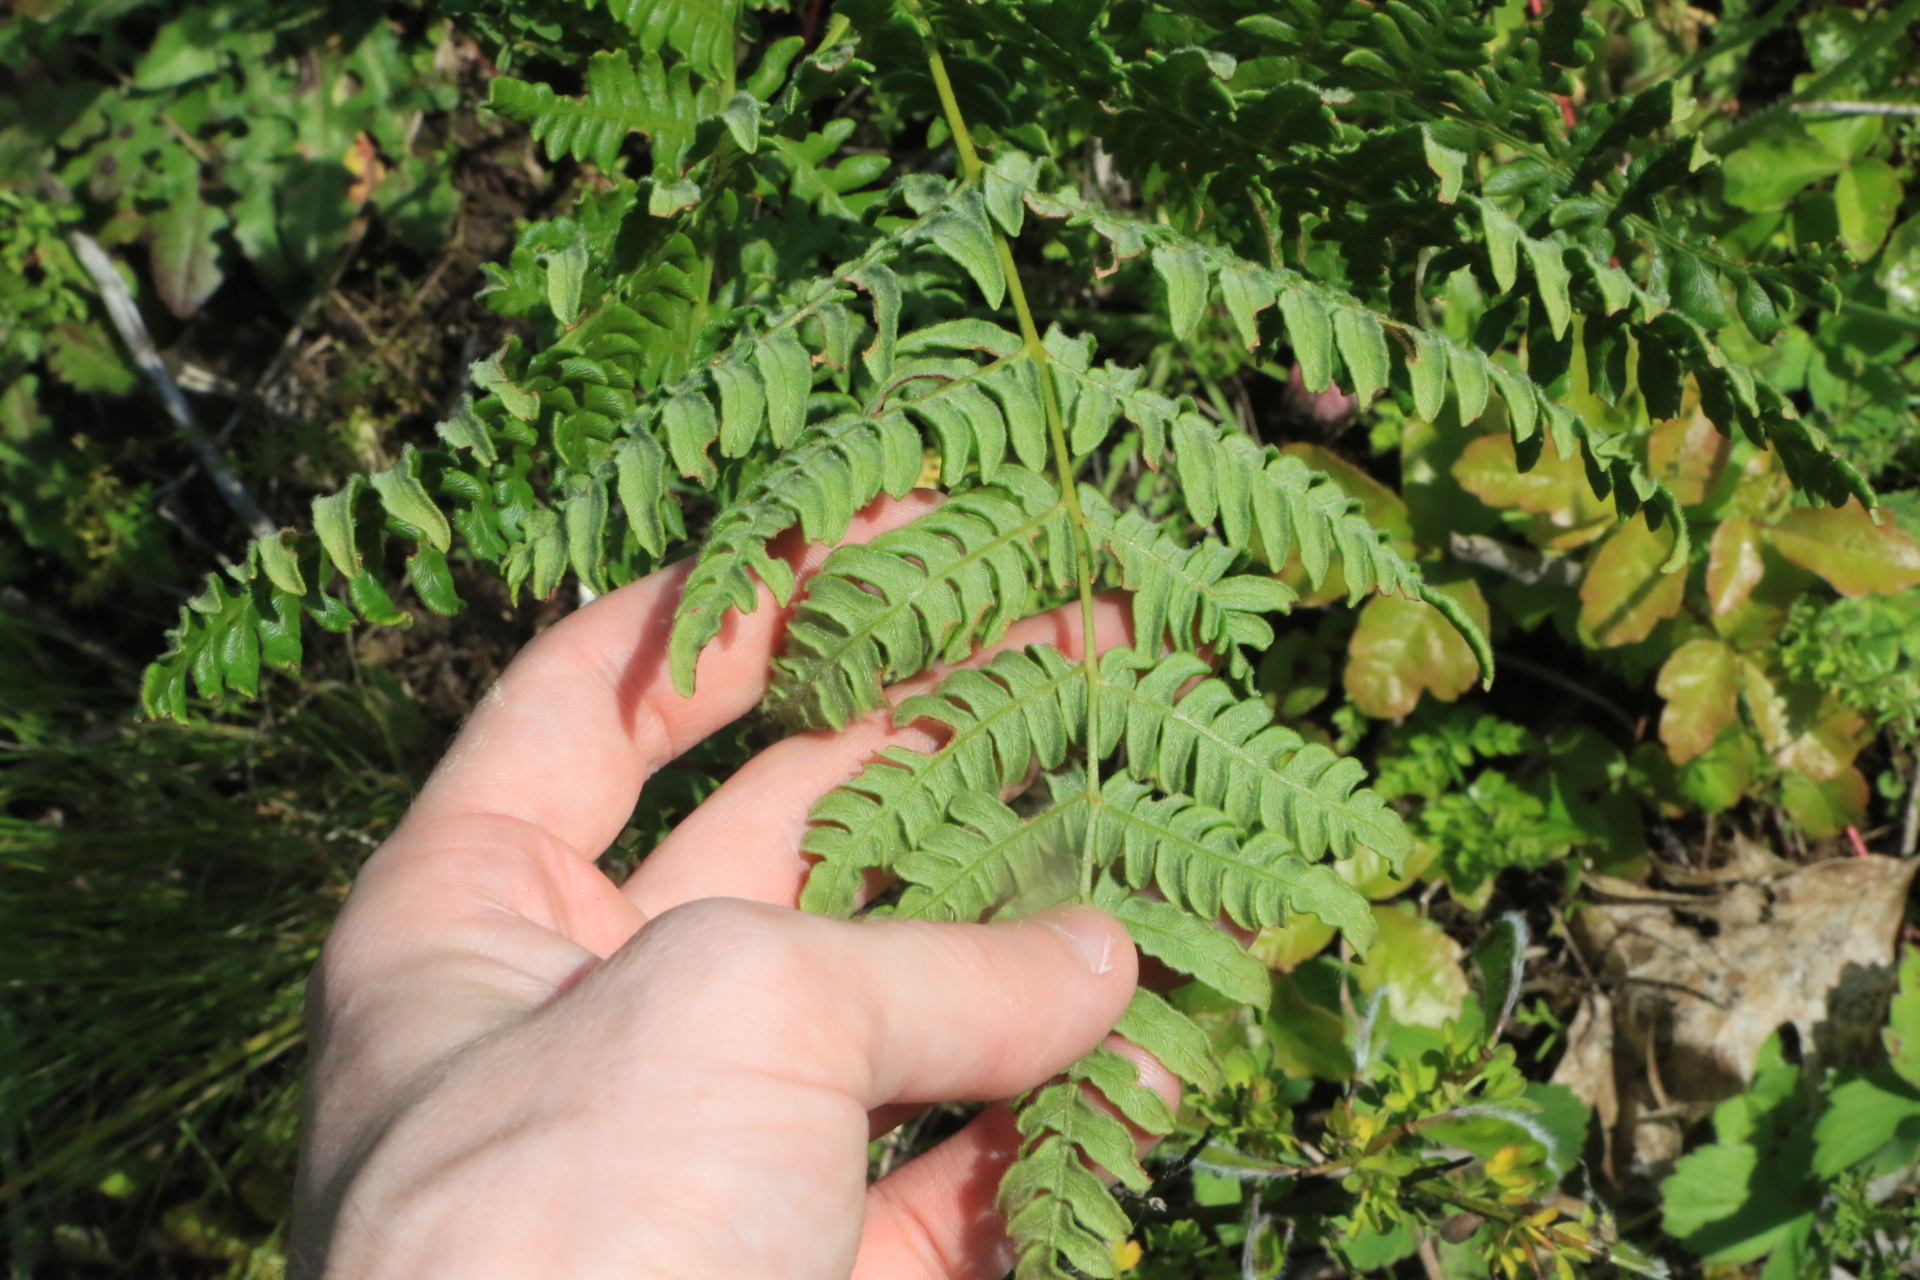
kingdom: Plantae
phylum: Tracheophyta
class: Polypodiopsida
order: Polypodiales
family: Dennstaedtiaceae
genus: Pteridium
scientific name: Pteridium aquilinum
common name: Bracken
